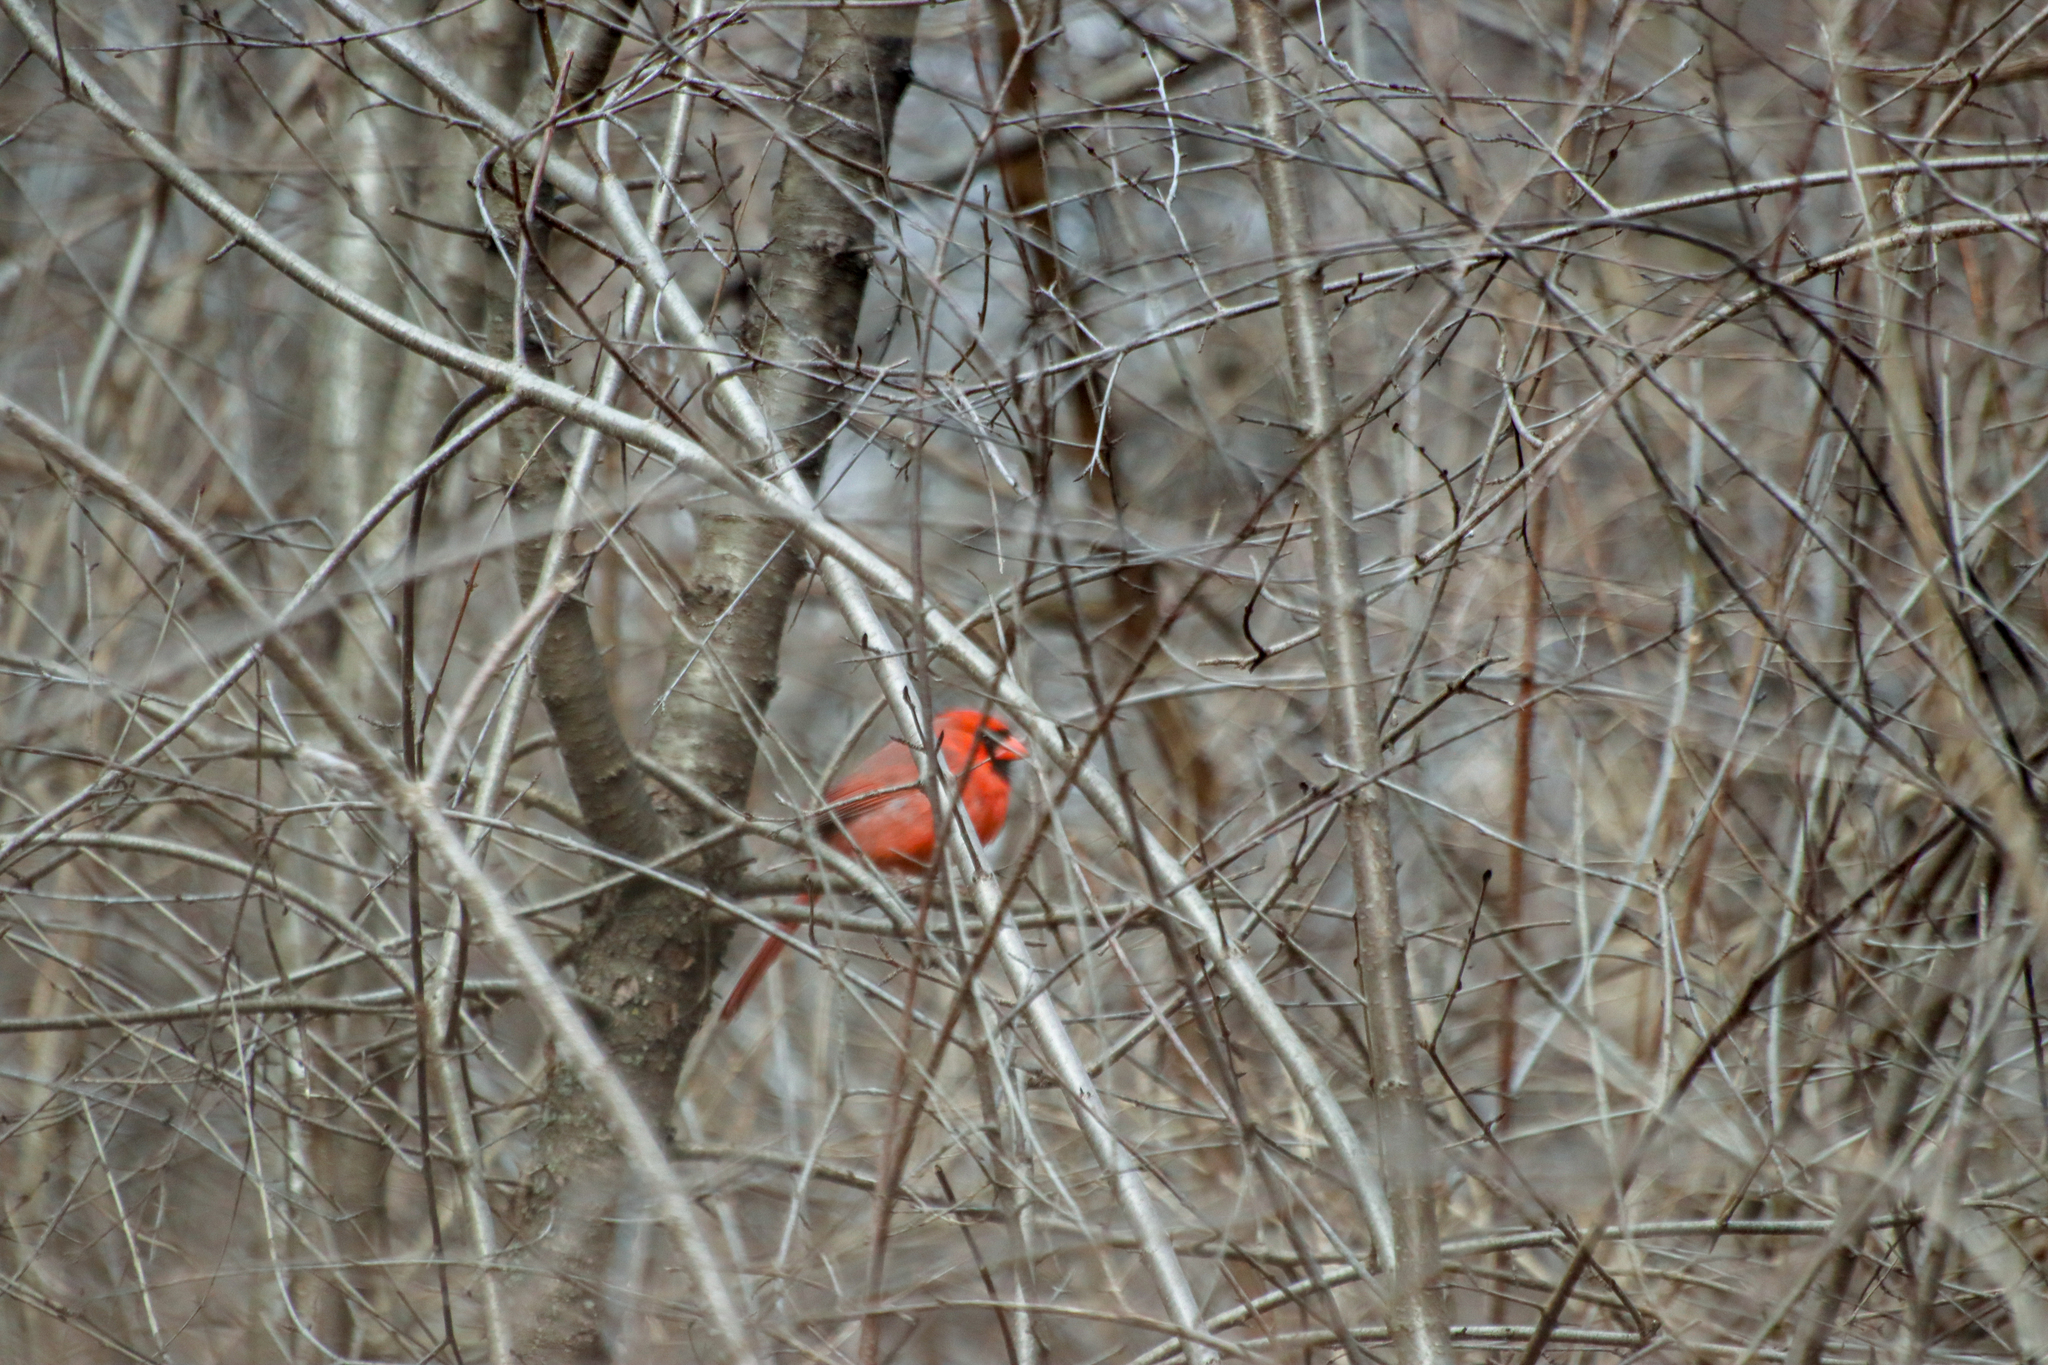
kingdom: Animalia
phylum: Chordata
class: Aves
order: Passeriformes
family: Cardinalidae
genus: Cardinalis
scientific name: Cardinalis cardinalis
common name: Northern cardinal
